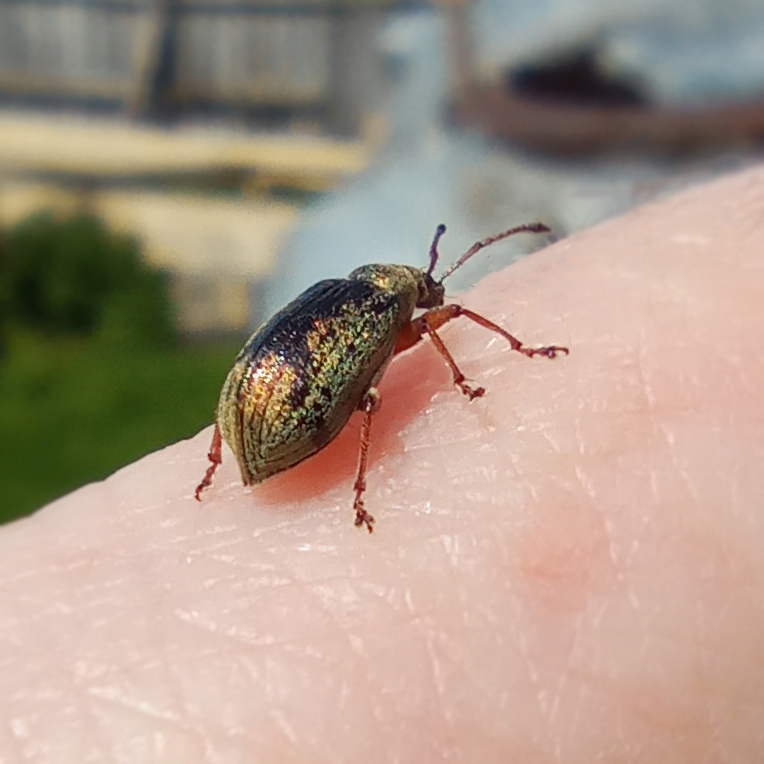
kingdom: Animalia
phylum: Arthropoda
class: Insecta
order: Coleoptera
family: Curculionidae
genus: Phyllobius
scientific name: Phyllobius pyri
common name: Common leaf weevil
